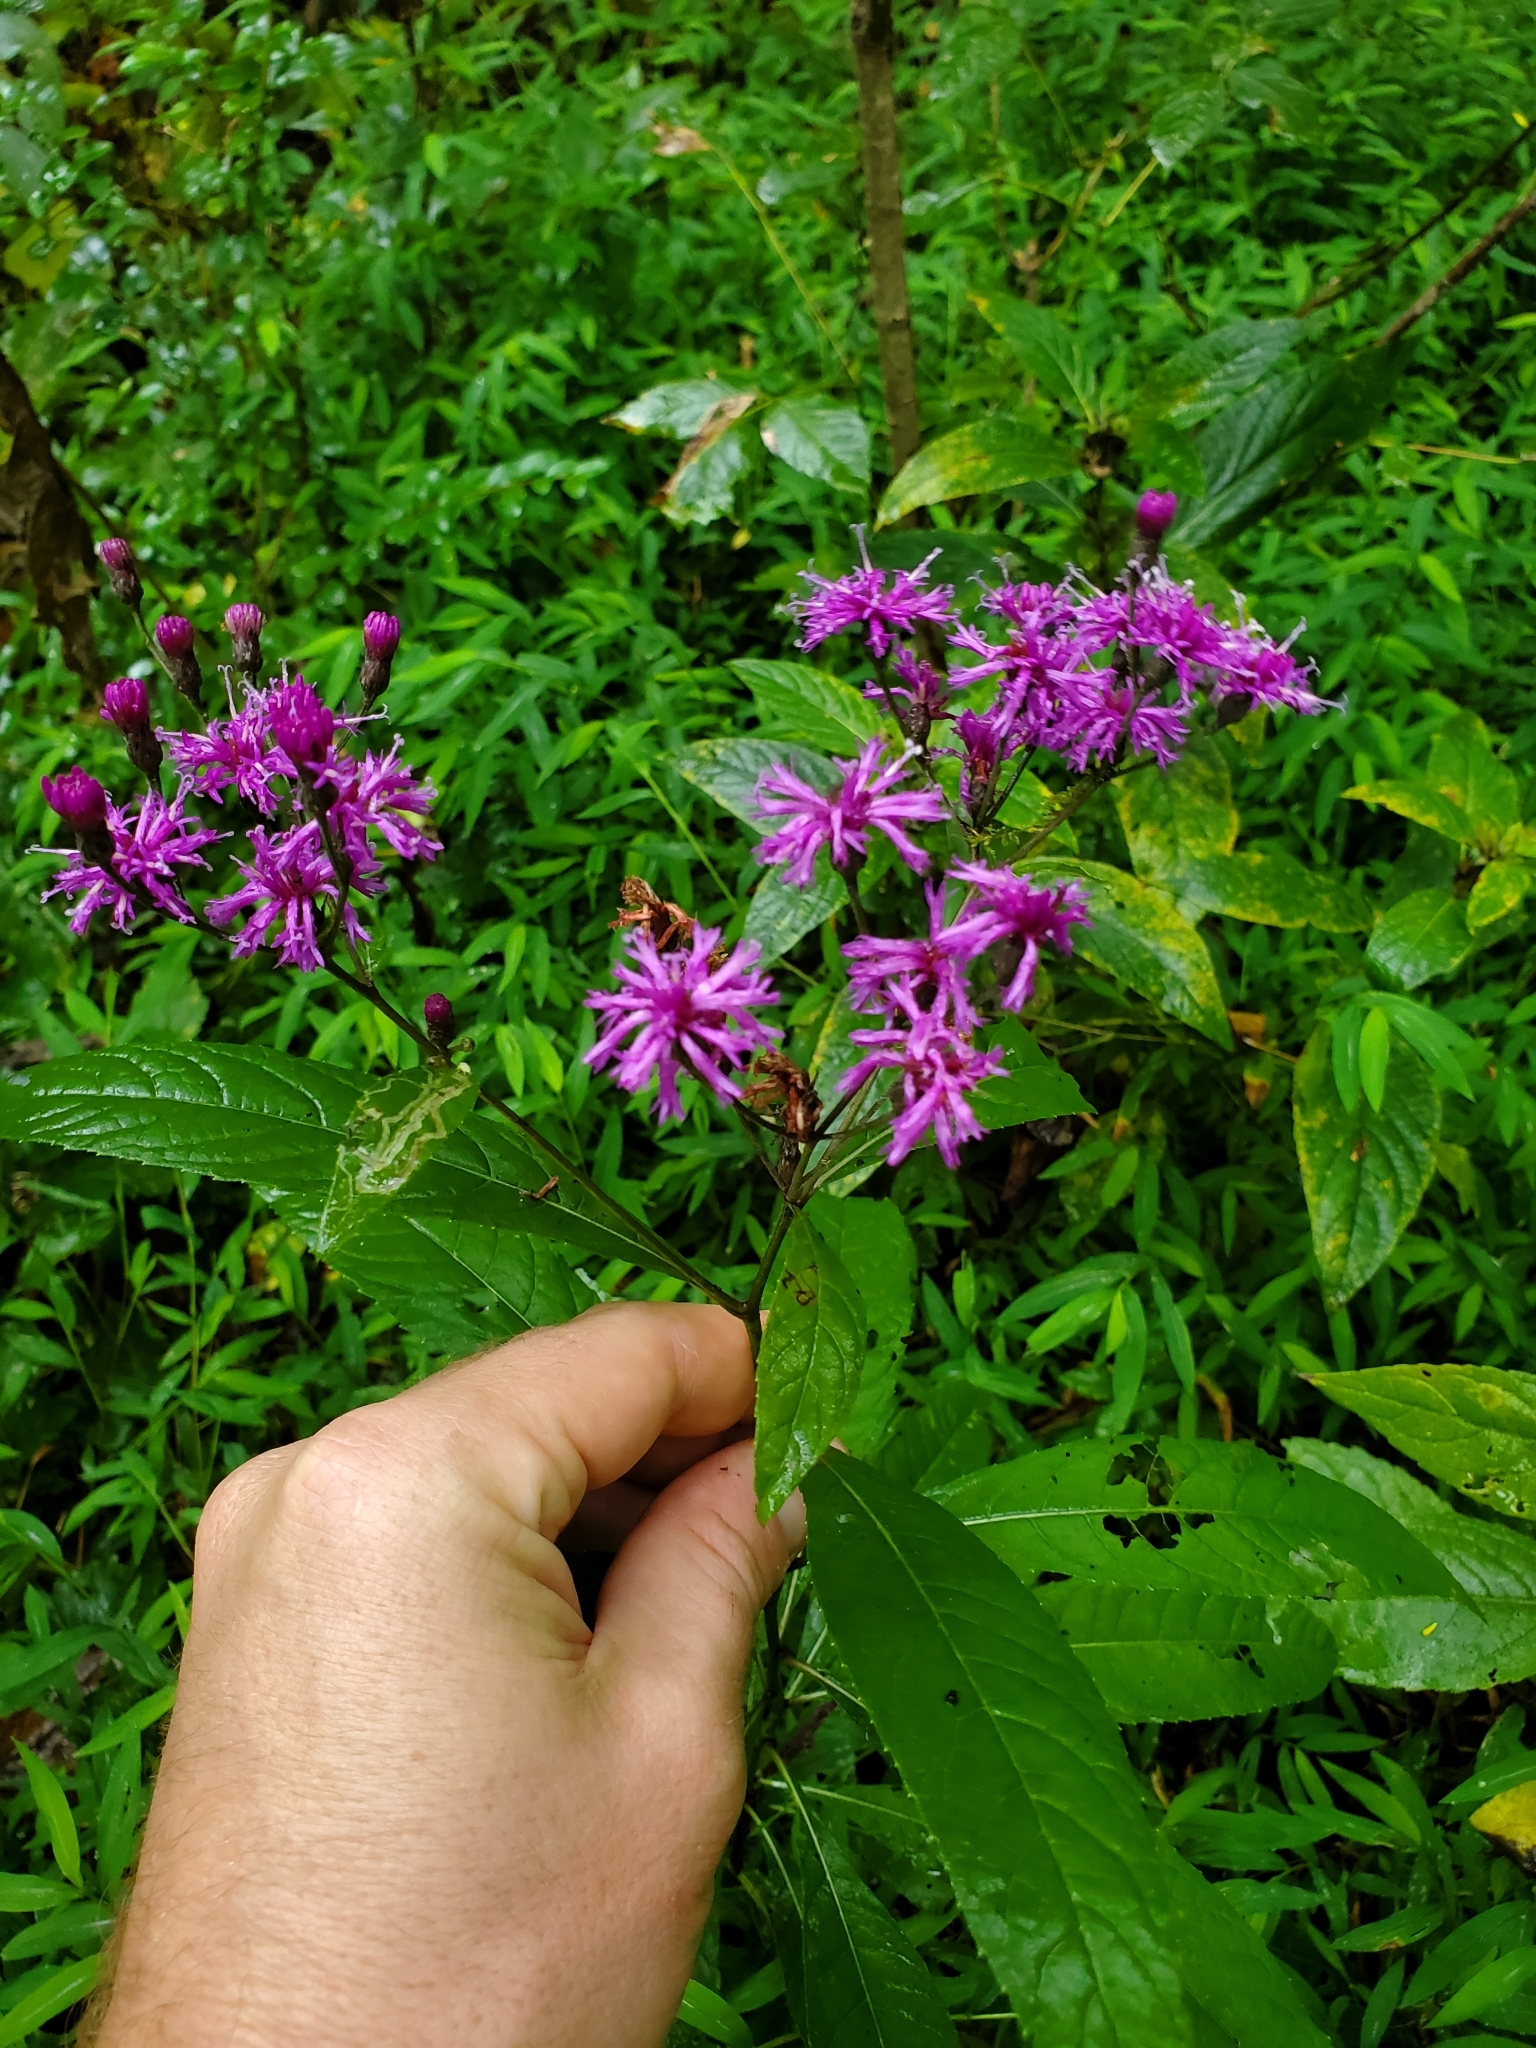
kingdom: Plantae
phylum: Tracheophyta
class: Magnoliopsida
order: Asterales
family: Asteraceae
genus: Vernonia
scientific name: Vernonia gigantea
